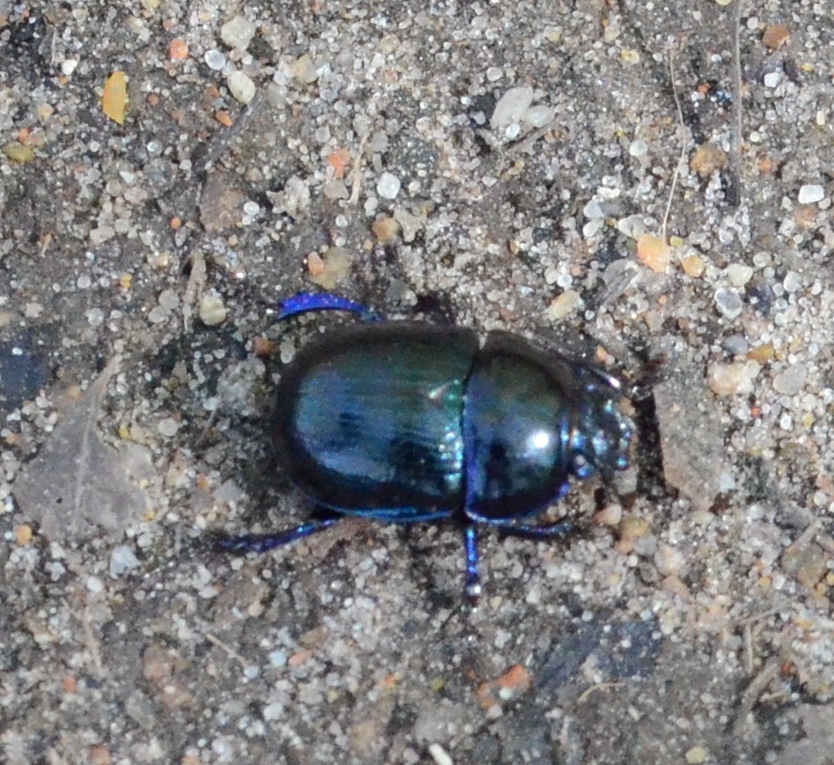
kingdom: Animalia
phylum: Arthropoda
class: Insecta
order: Coleoptera
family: Geotrupidae
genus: Anoplotrupes
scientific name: Anoplotrupes stercorosus
